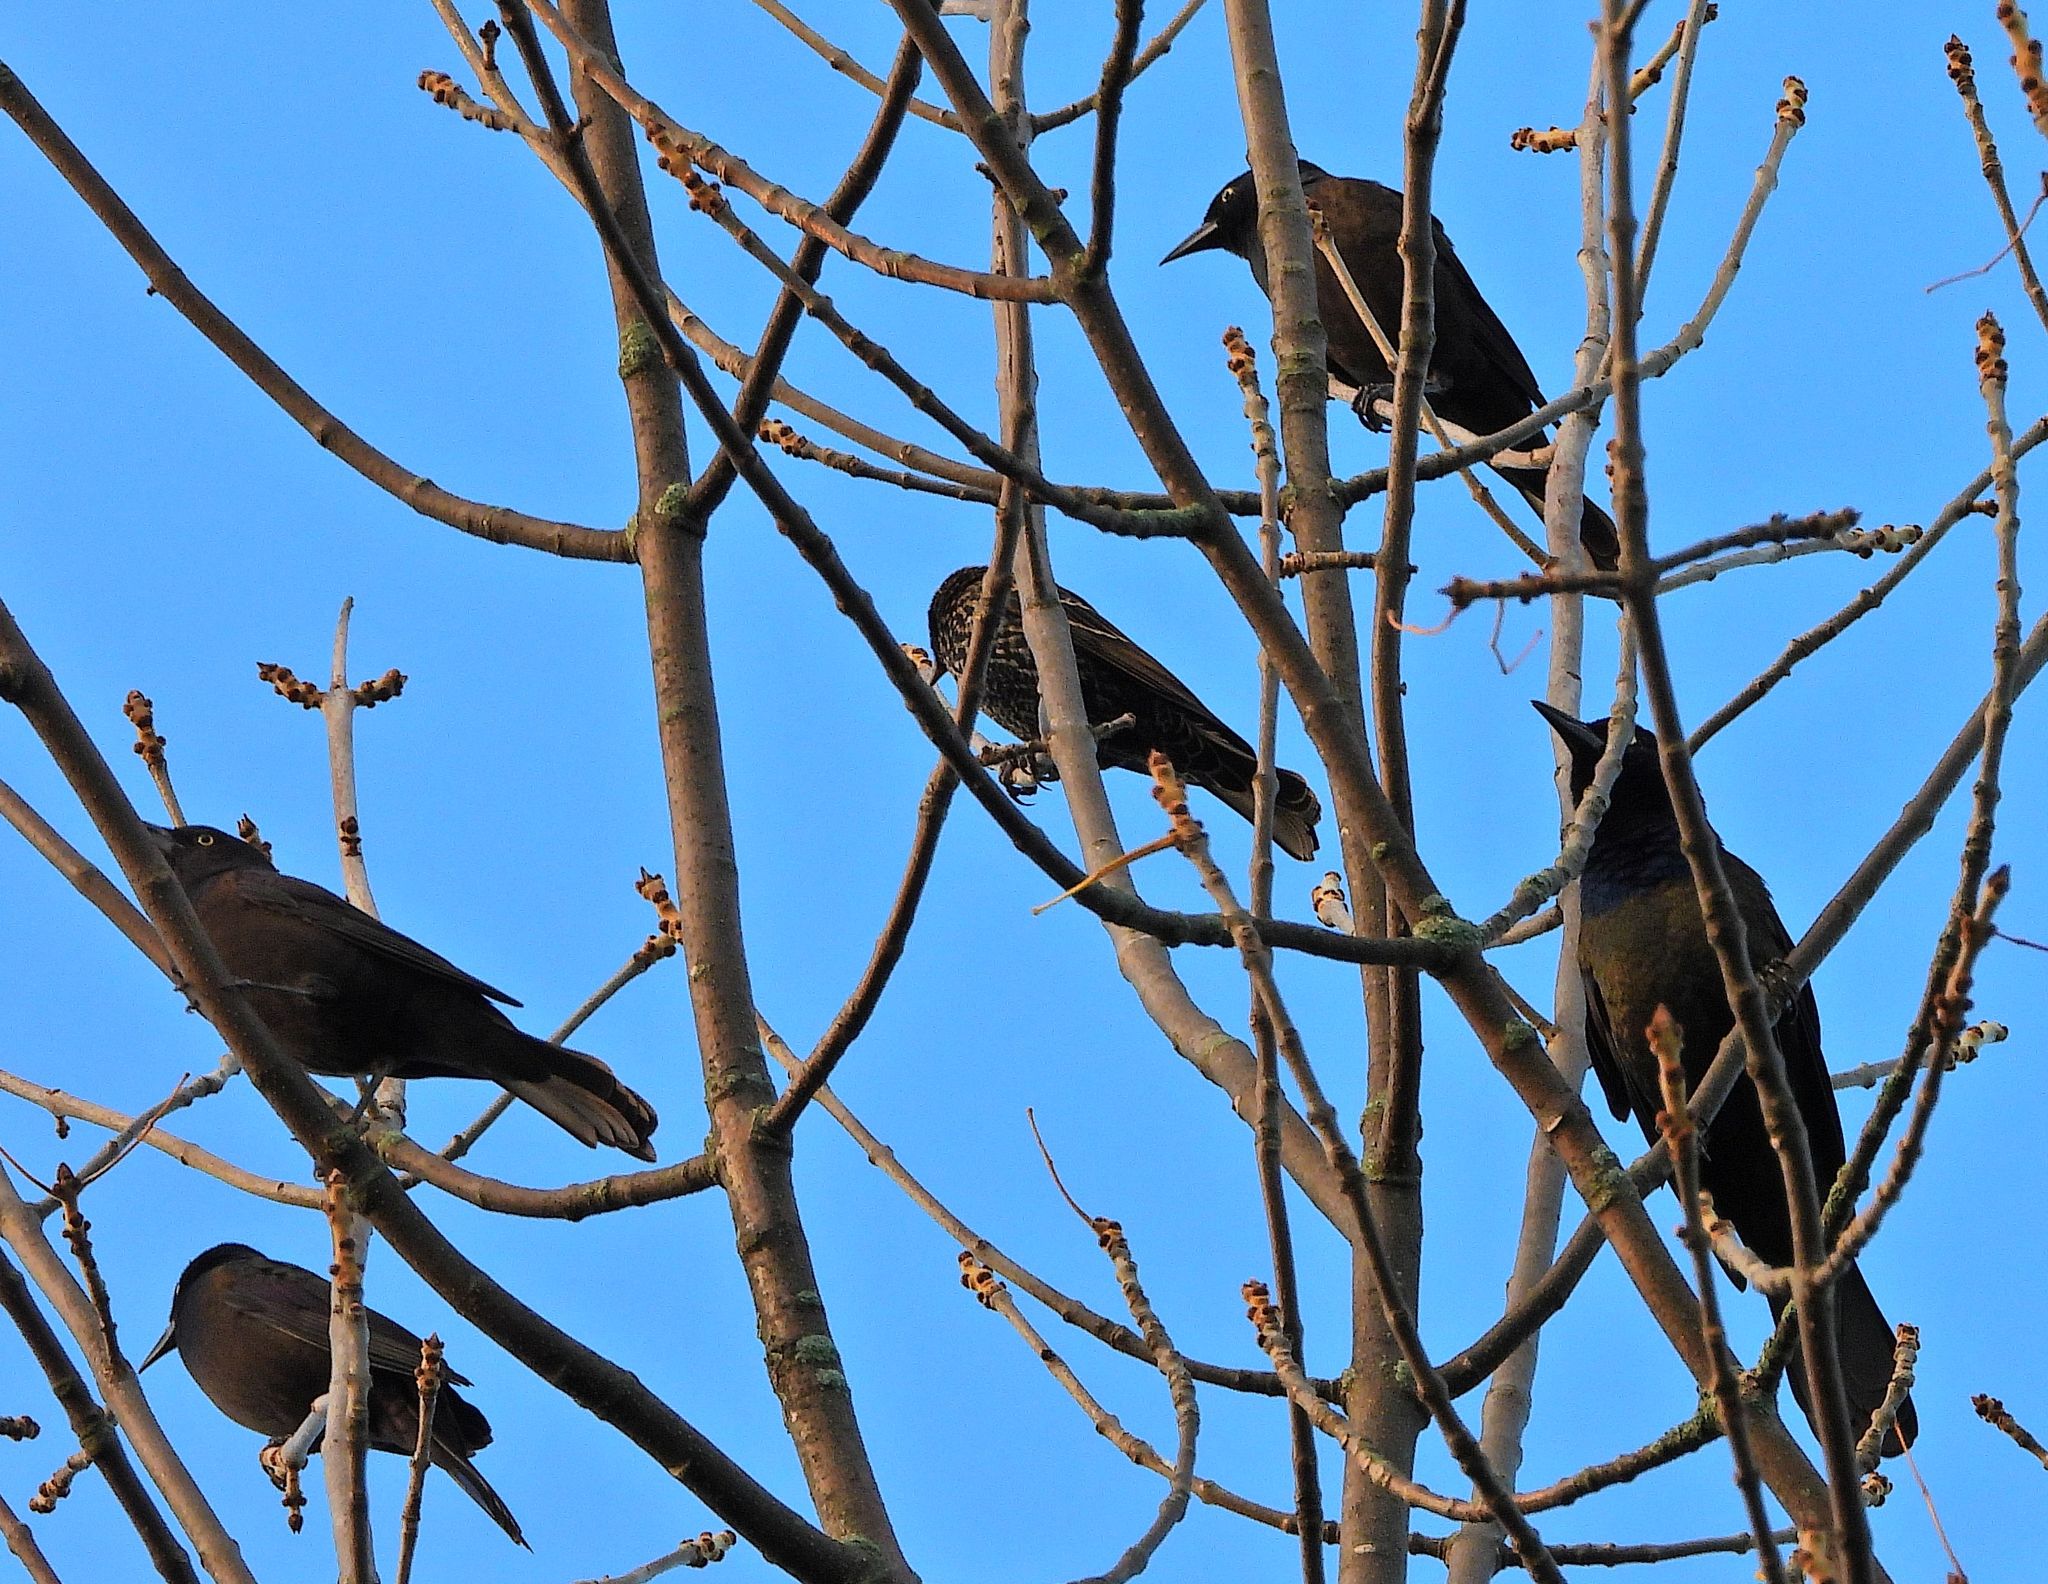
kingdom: Animalia
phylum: Chordata
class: Aves
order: Passeriformes
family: Icteridae
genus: Quiscalus
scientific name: Quiscalus quiscula
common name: Common grackle
